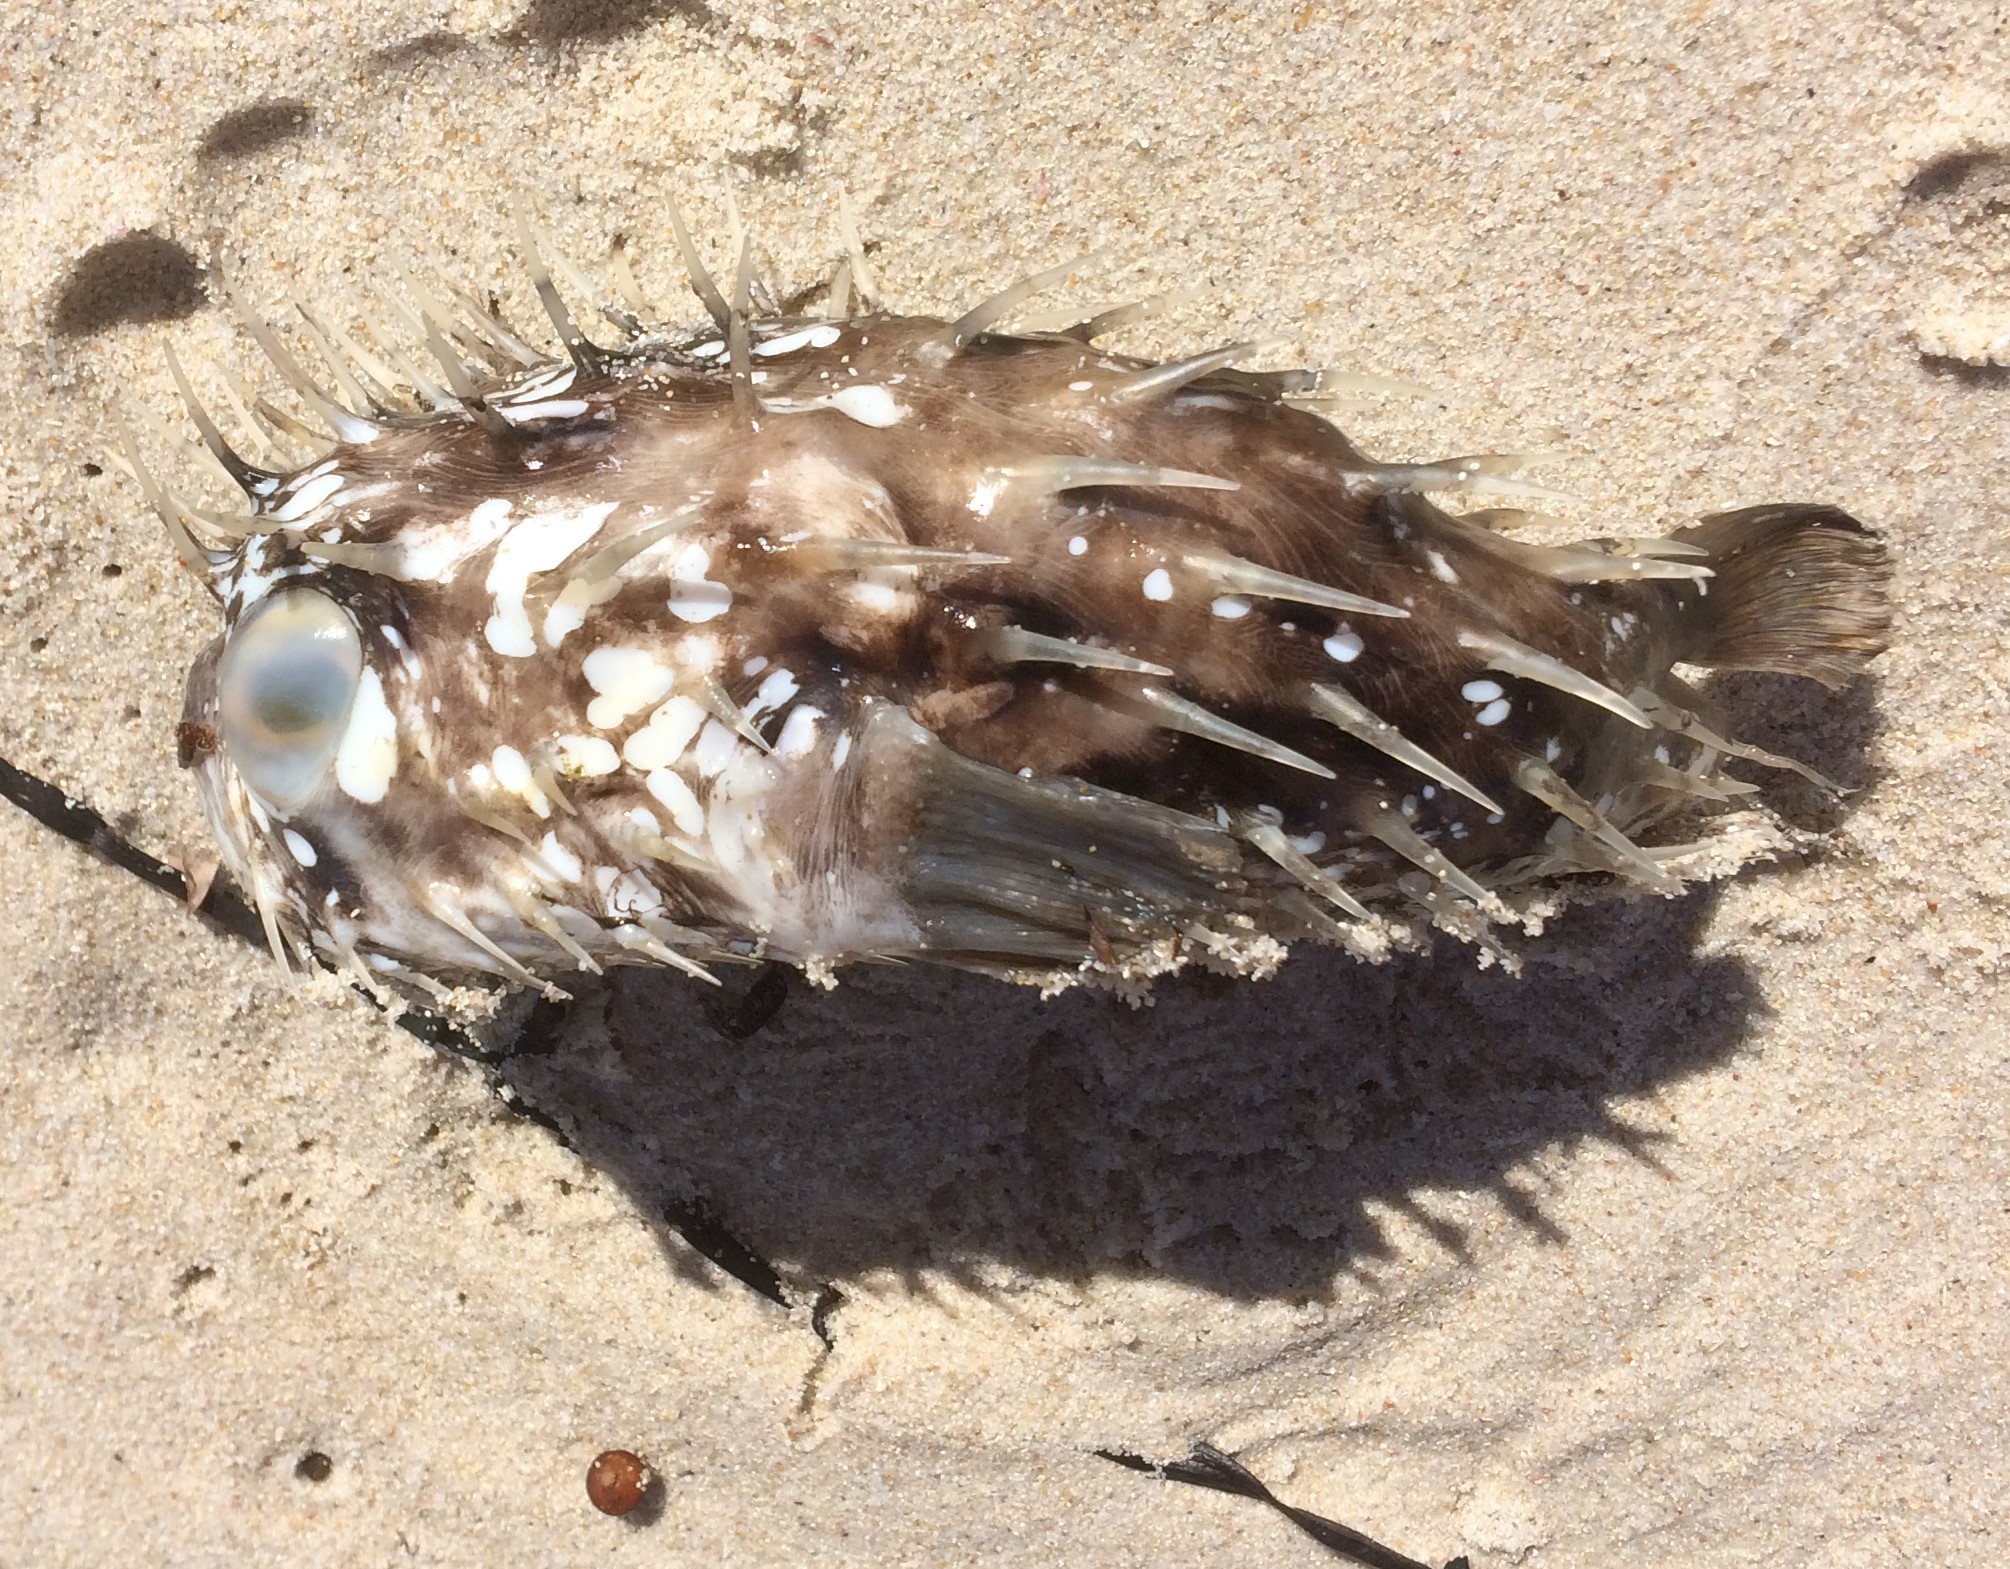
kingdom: Animalia
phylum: Chordata
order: Tetraodontiformes
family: Diodontidae
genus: Diodon
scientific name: Diodon nicthemerus
